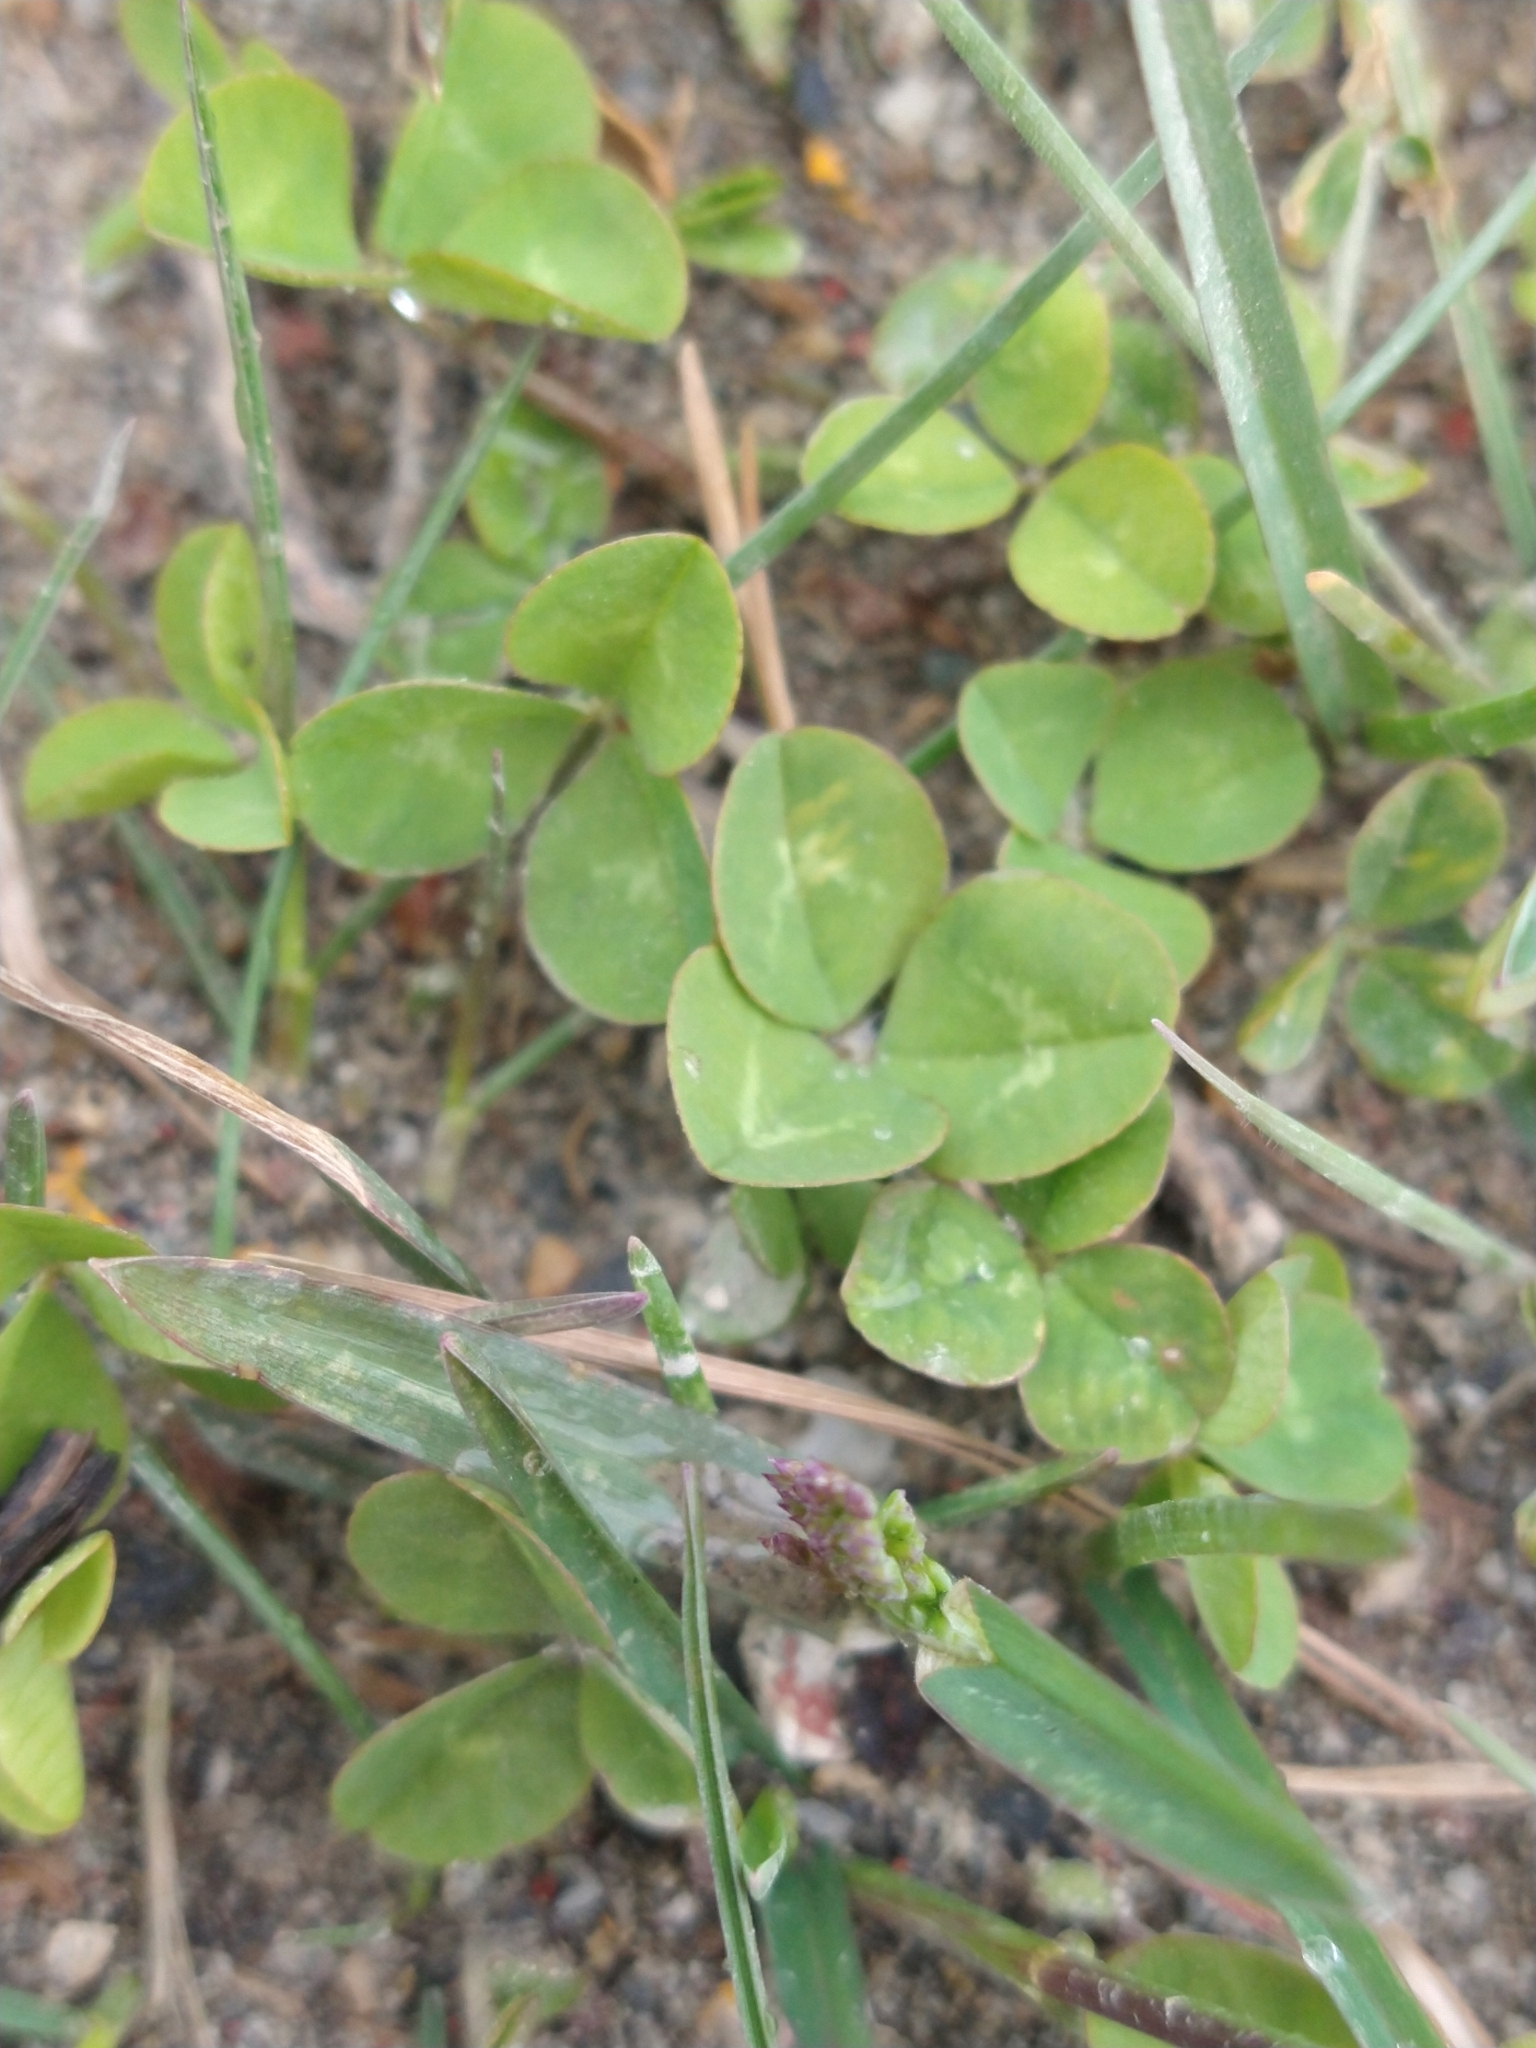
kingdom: Plantae
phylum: Tracheophyta
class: Magnoliopsida
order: Fabales
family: Fabaceae
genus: Trifolium
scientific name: Trifolium repens
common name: White clover
